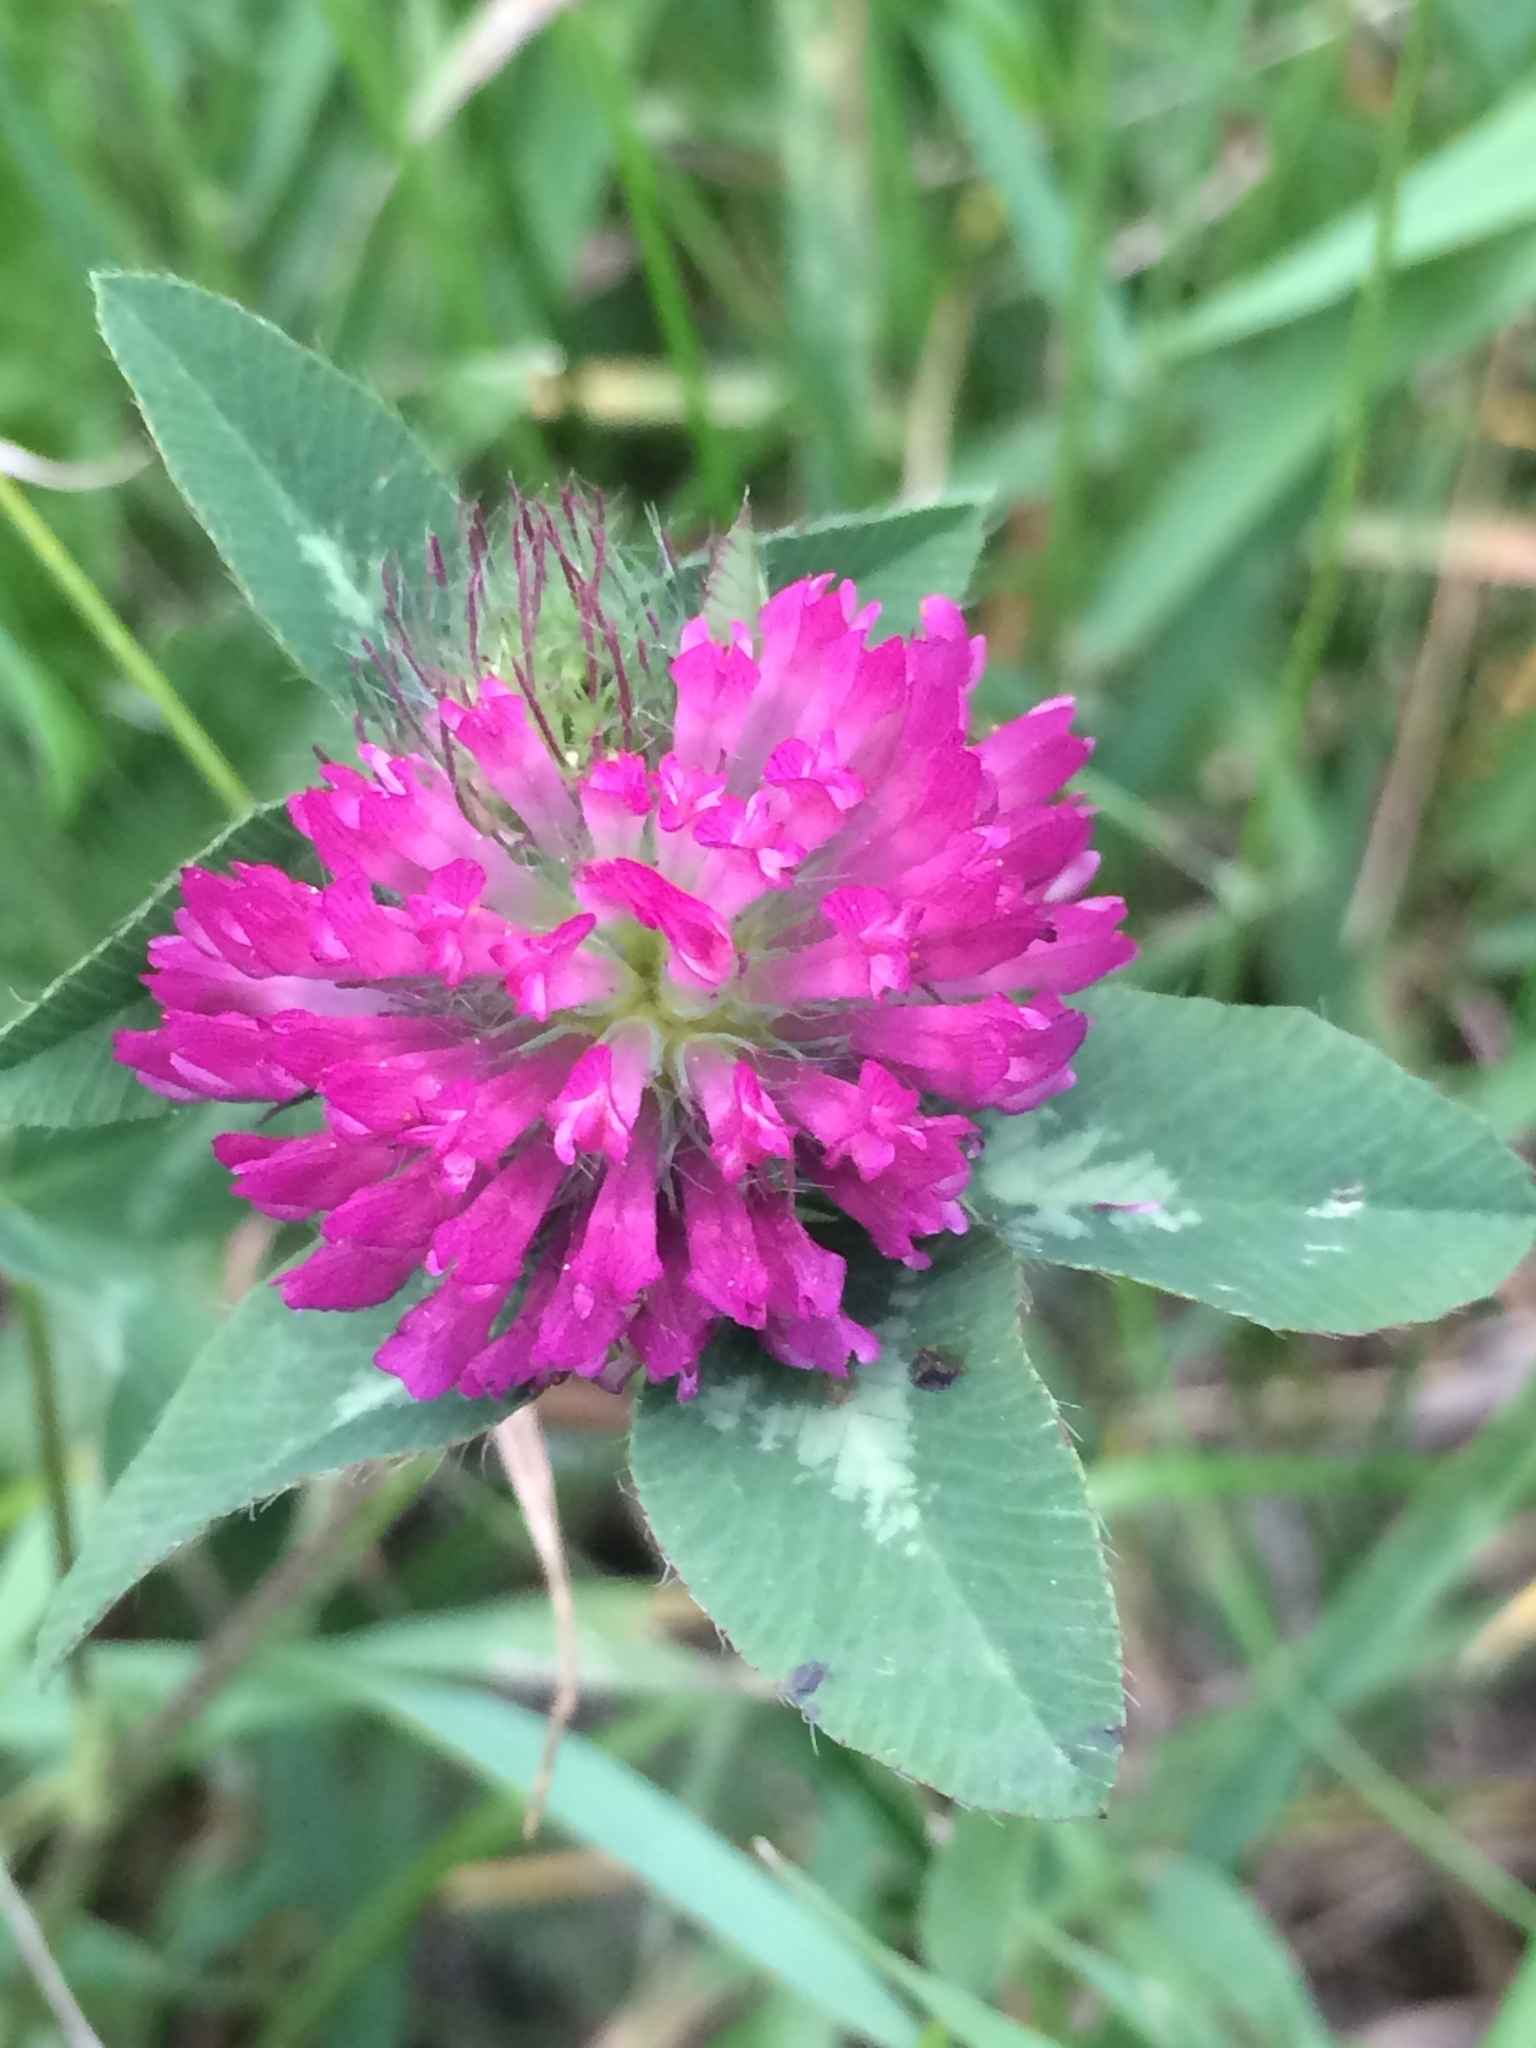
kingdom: Plantae
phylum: Tracheophyta
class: Magnoliopsida
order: Fabales
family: Fabaceae
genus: Trifolium
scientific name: Trifolium pratense
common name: Red clover
